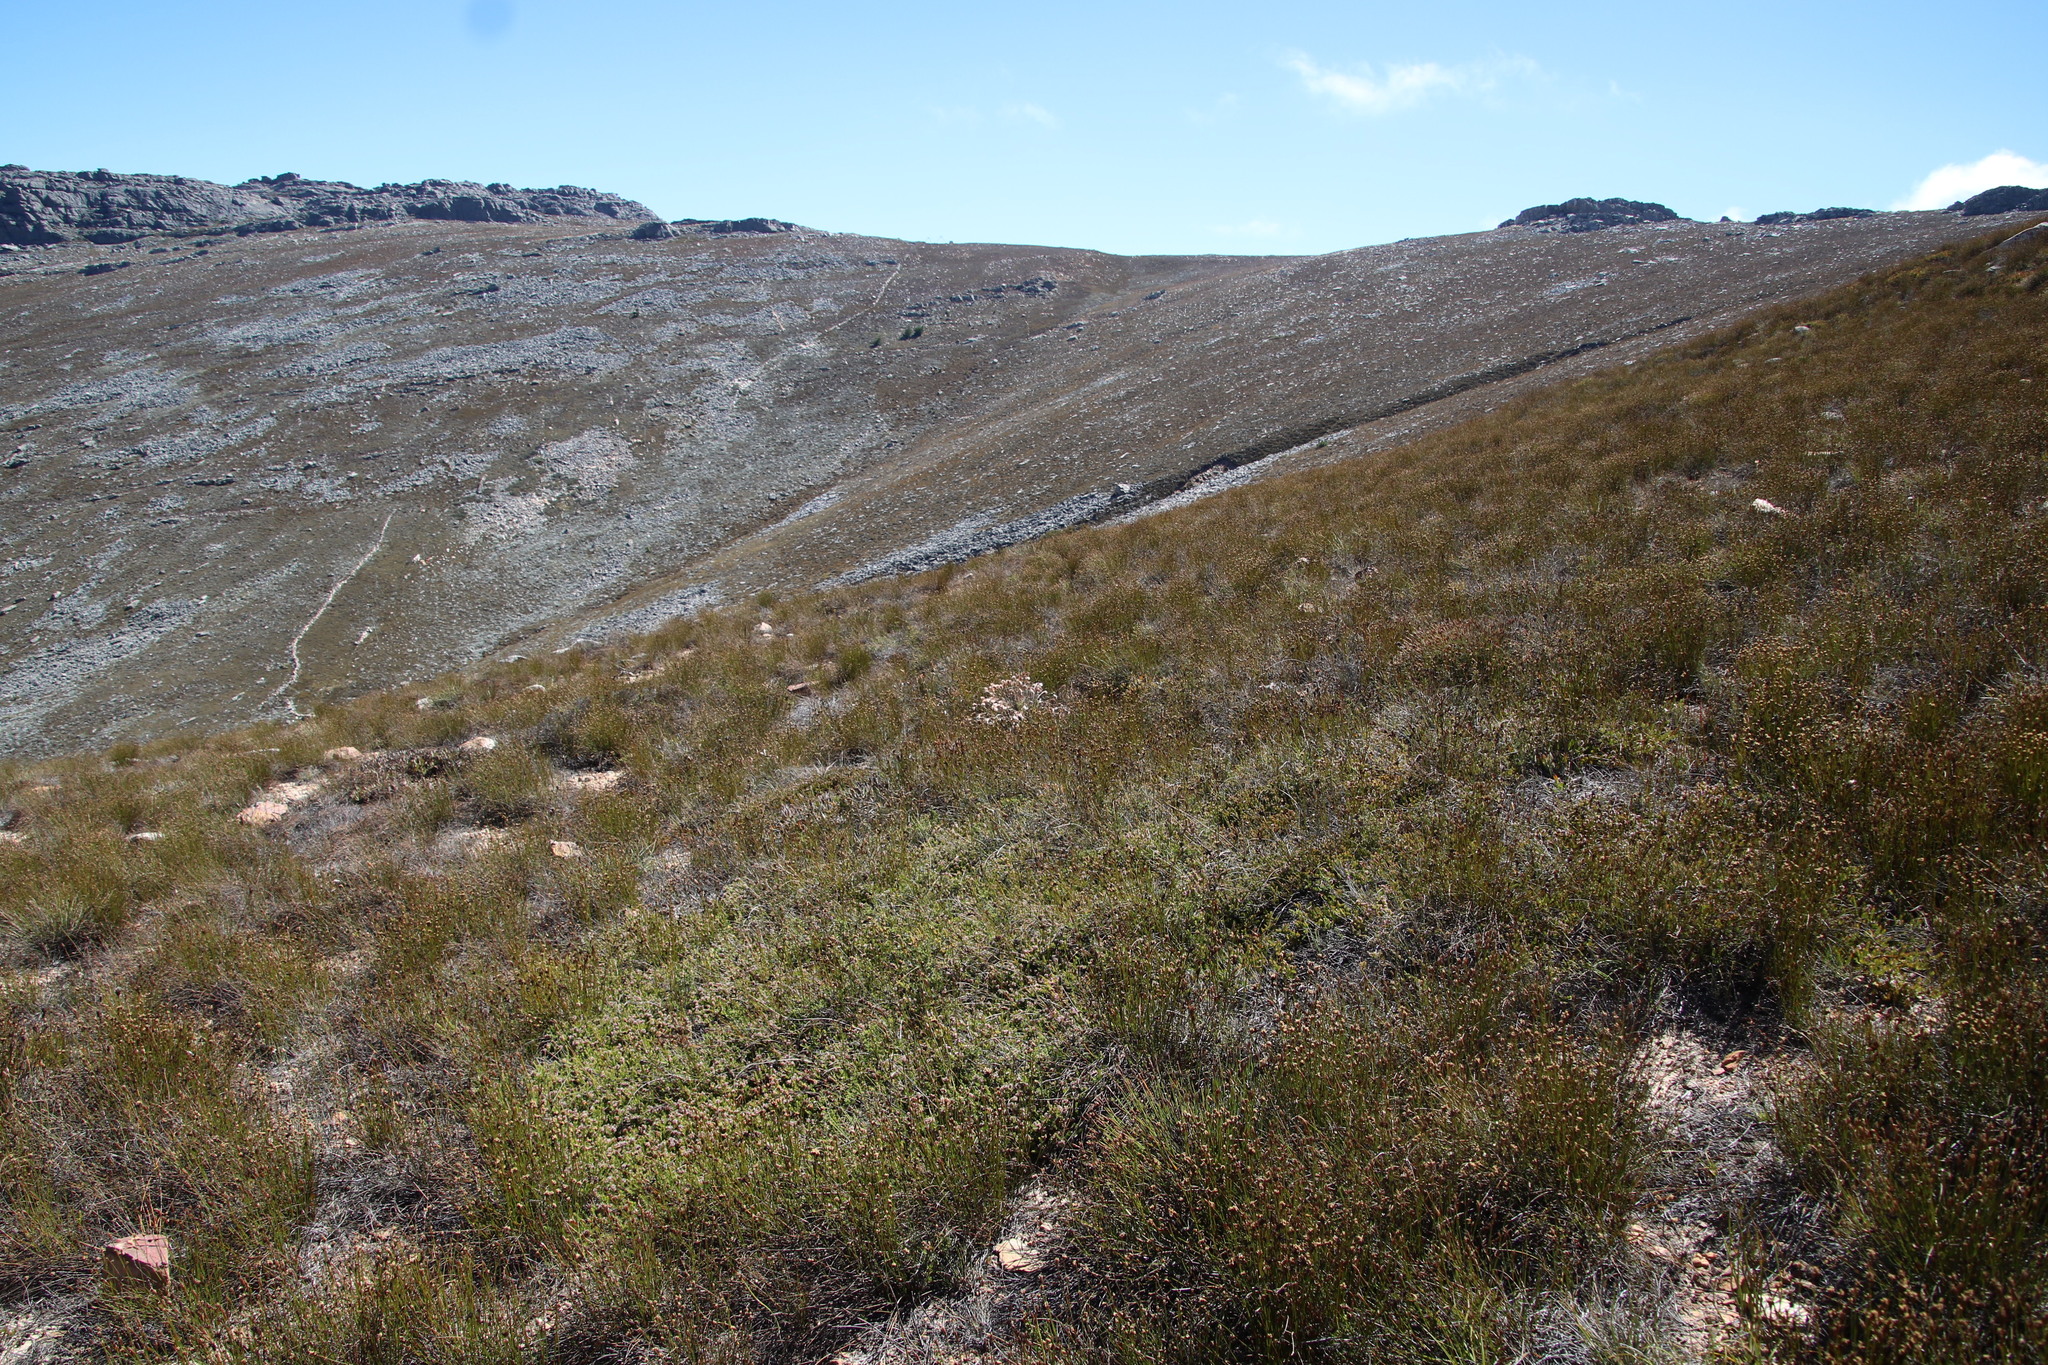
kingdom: Plantae
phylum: Tracheophyta
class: Liliopsida
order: Poales
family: Restionaceae
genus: Thamnochortus
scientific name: Thamnochortus acuminatus
